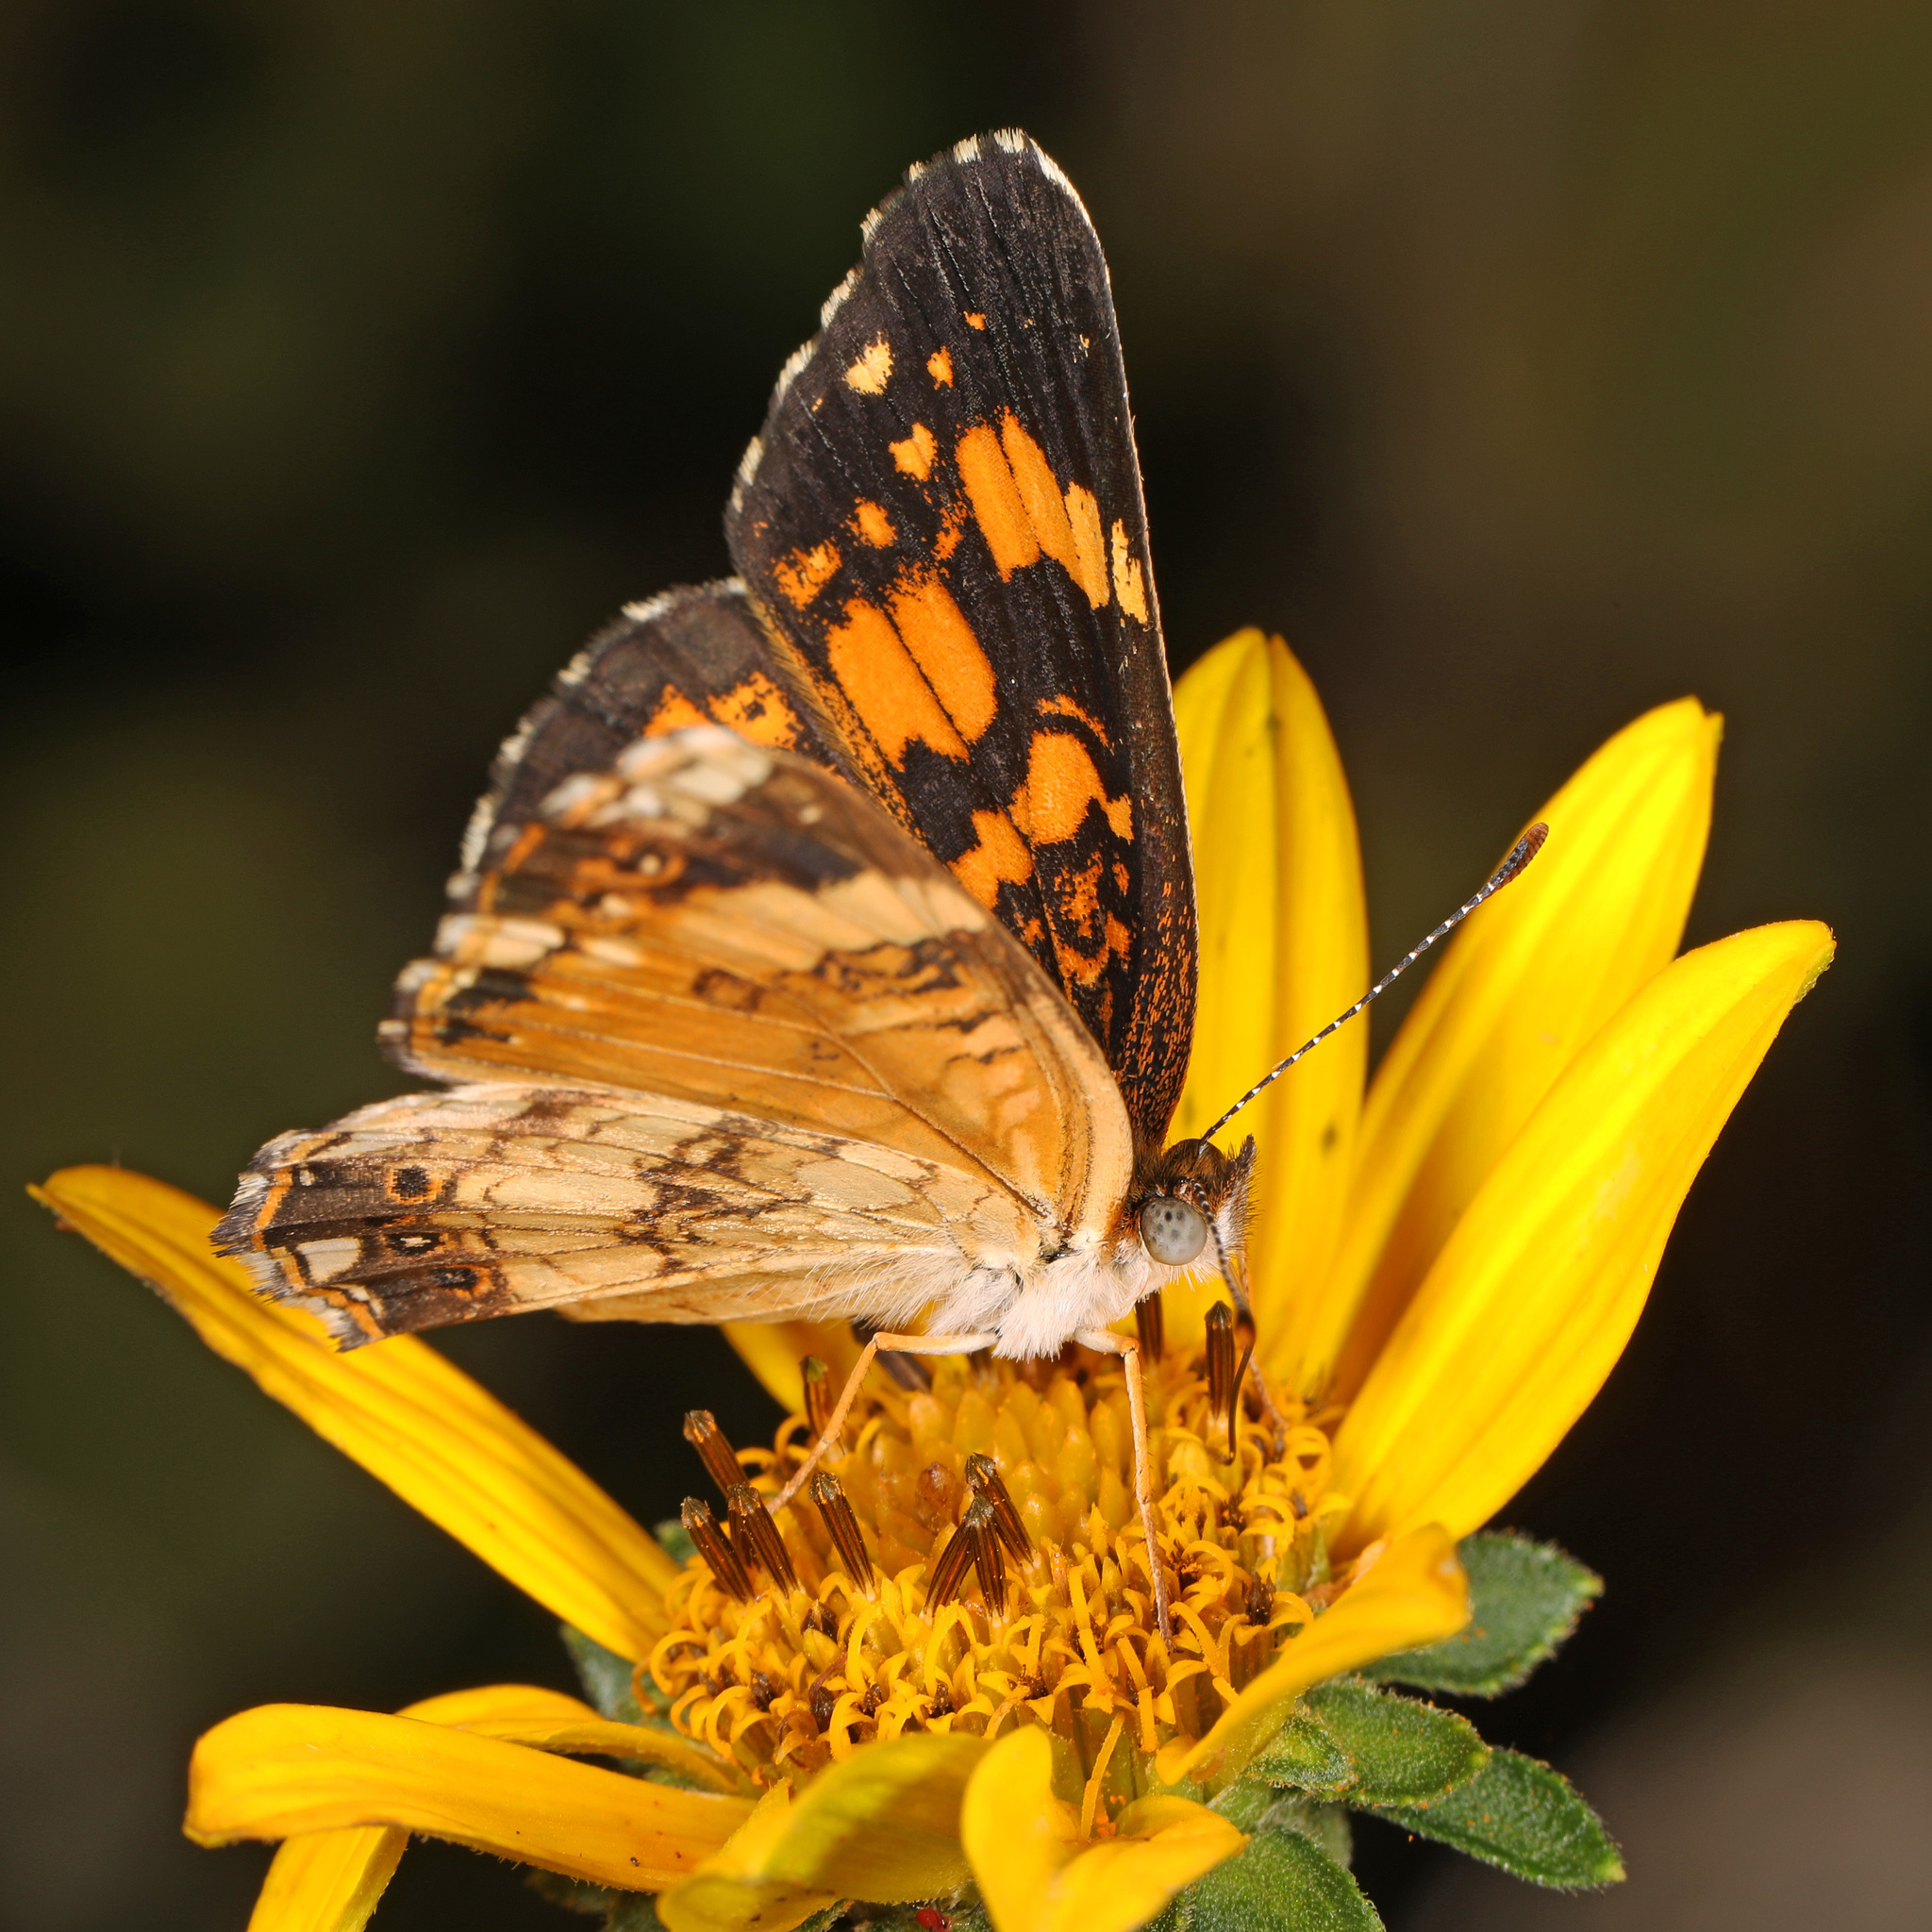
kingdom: Animalia
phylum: Arthropoda
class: Insecta
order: Lepidoptera
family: Nymphalidae
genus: Chlosyne
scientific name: Chlosyne nycteis
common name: Silvery checkerspot
